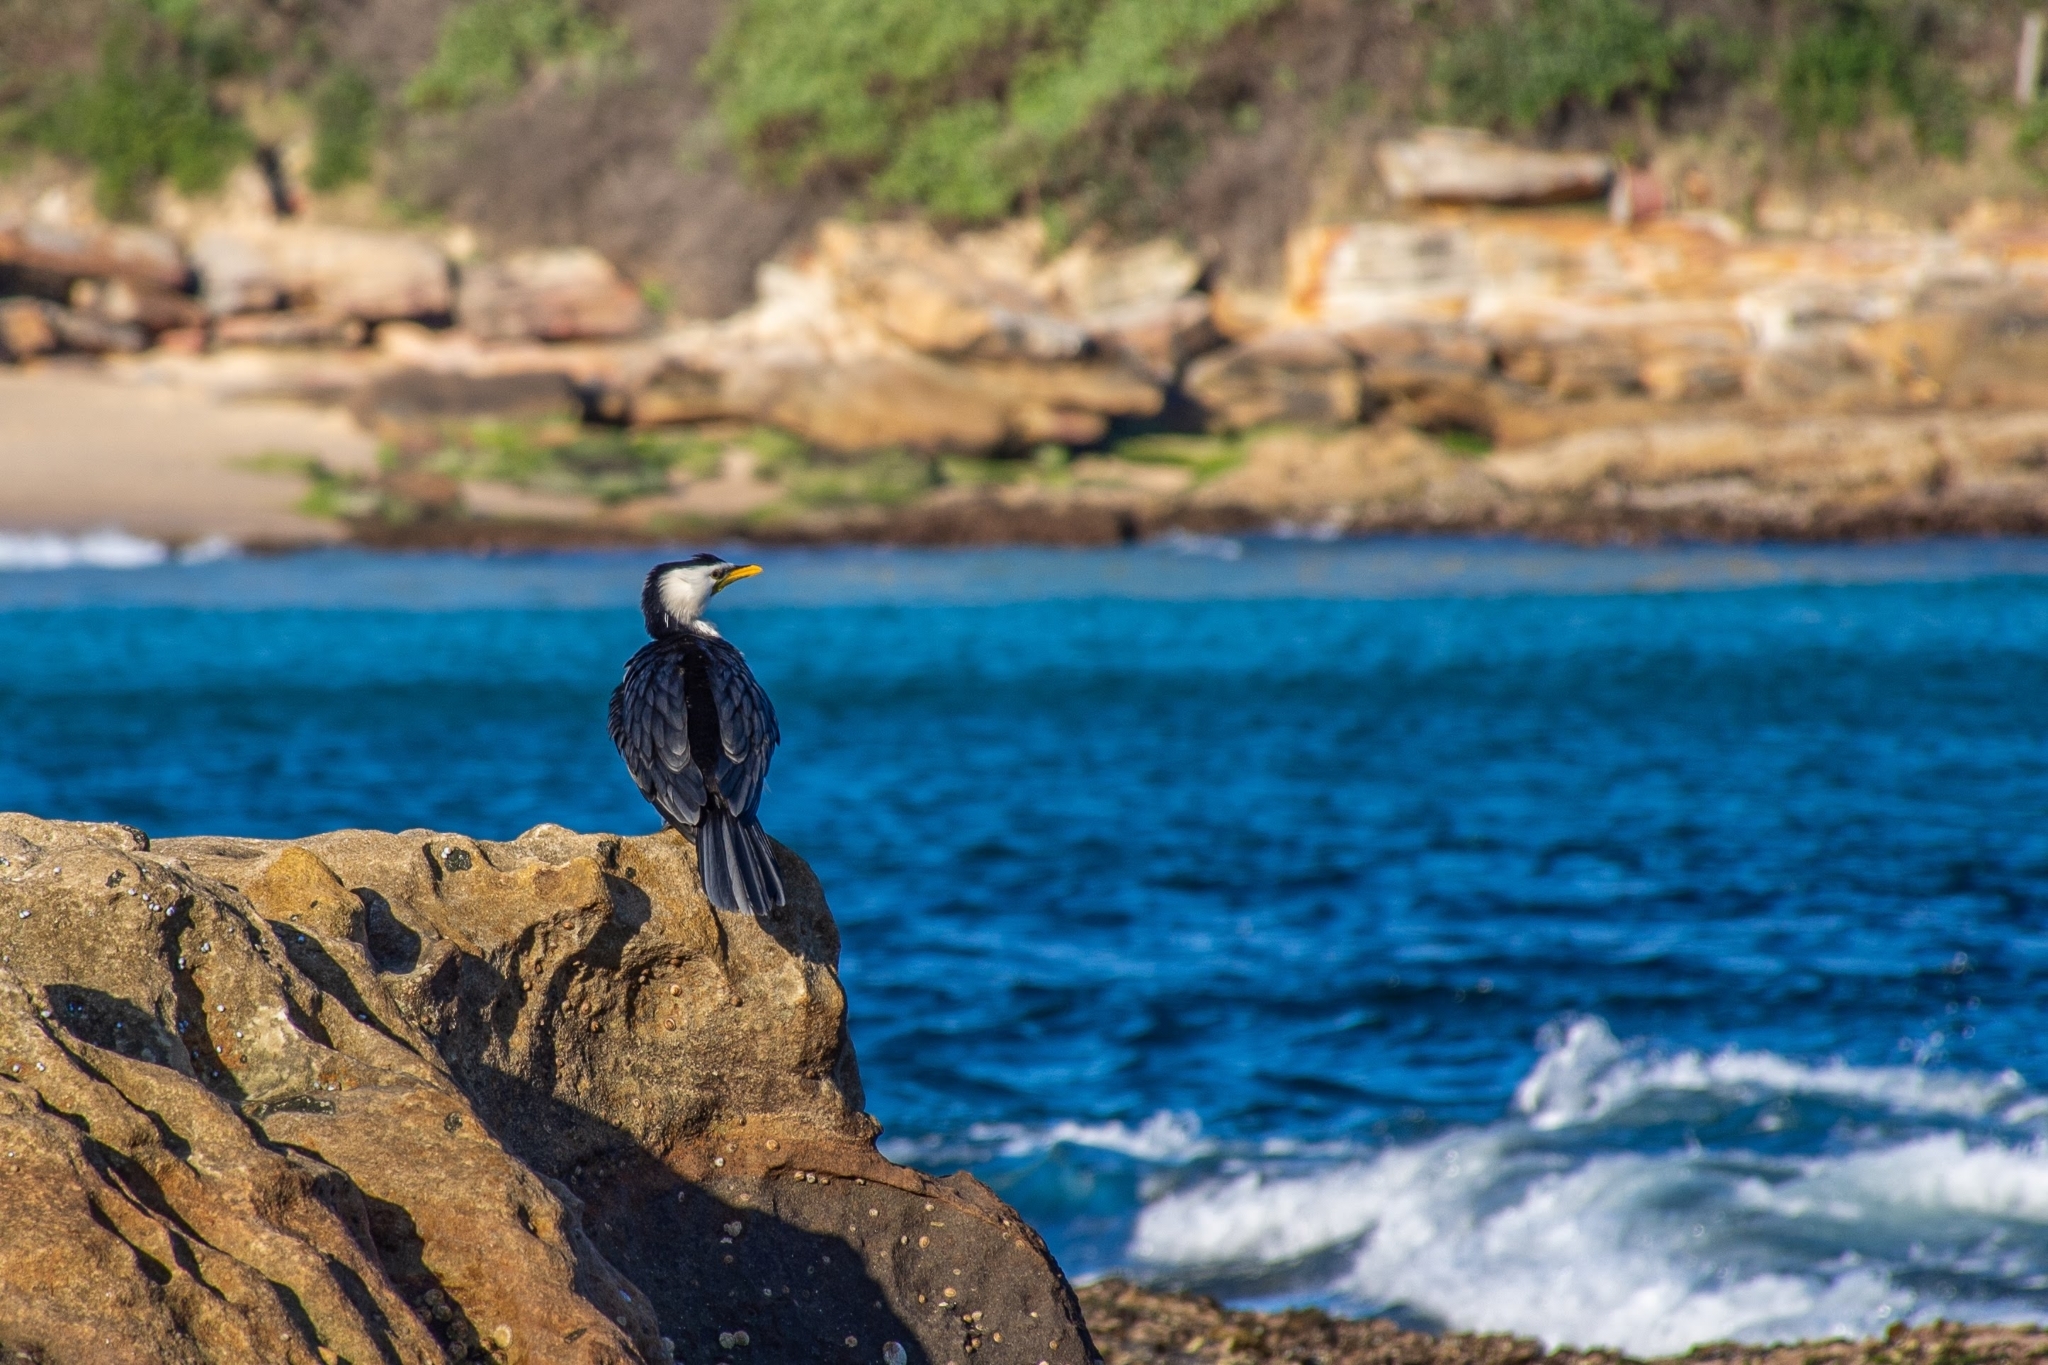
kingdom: Animalia
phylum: Chordata
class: Aves
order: Suliformes
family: Phalacrocoracidae
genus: Microcarbo
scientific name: Microcarbo melanoleucos
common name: Little pied cormorant
